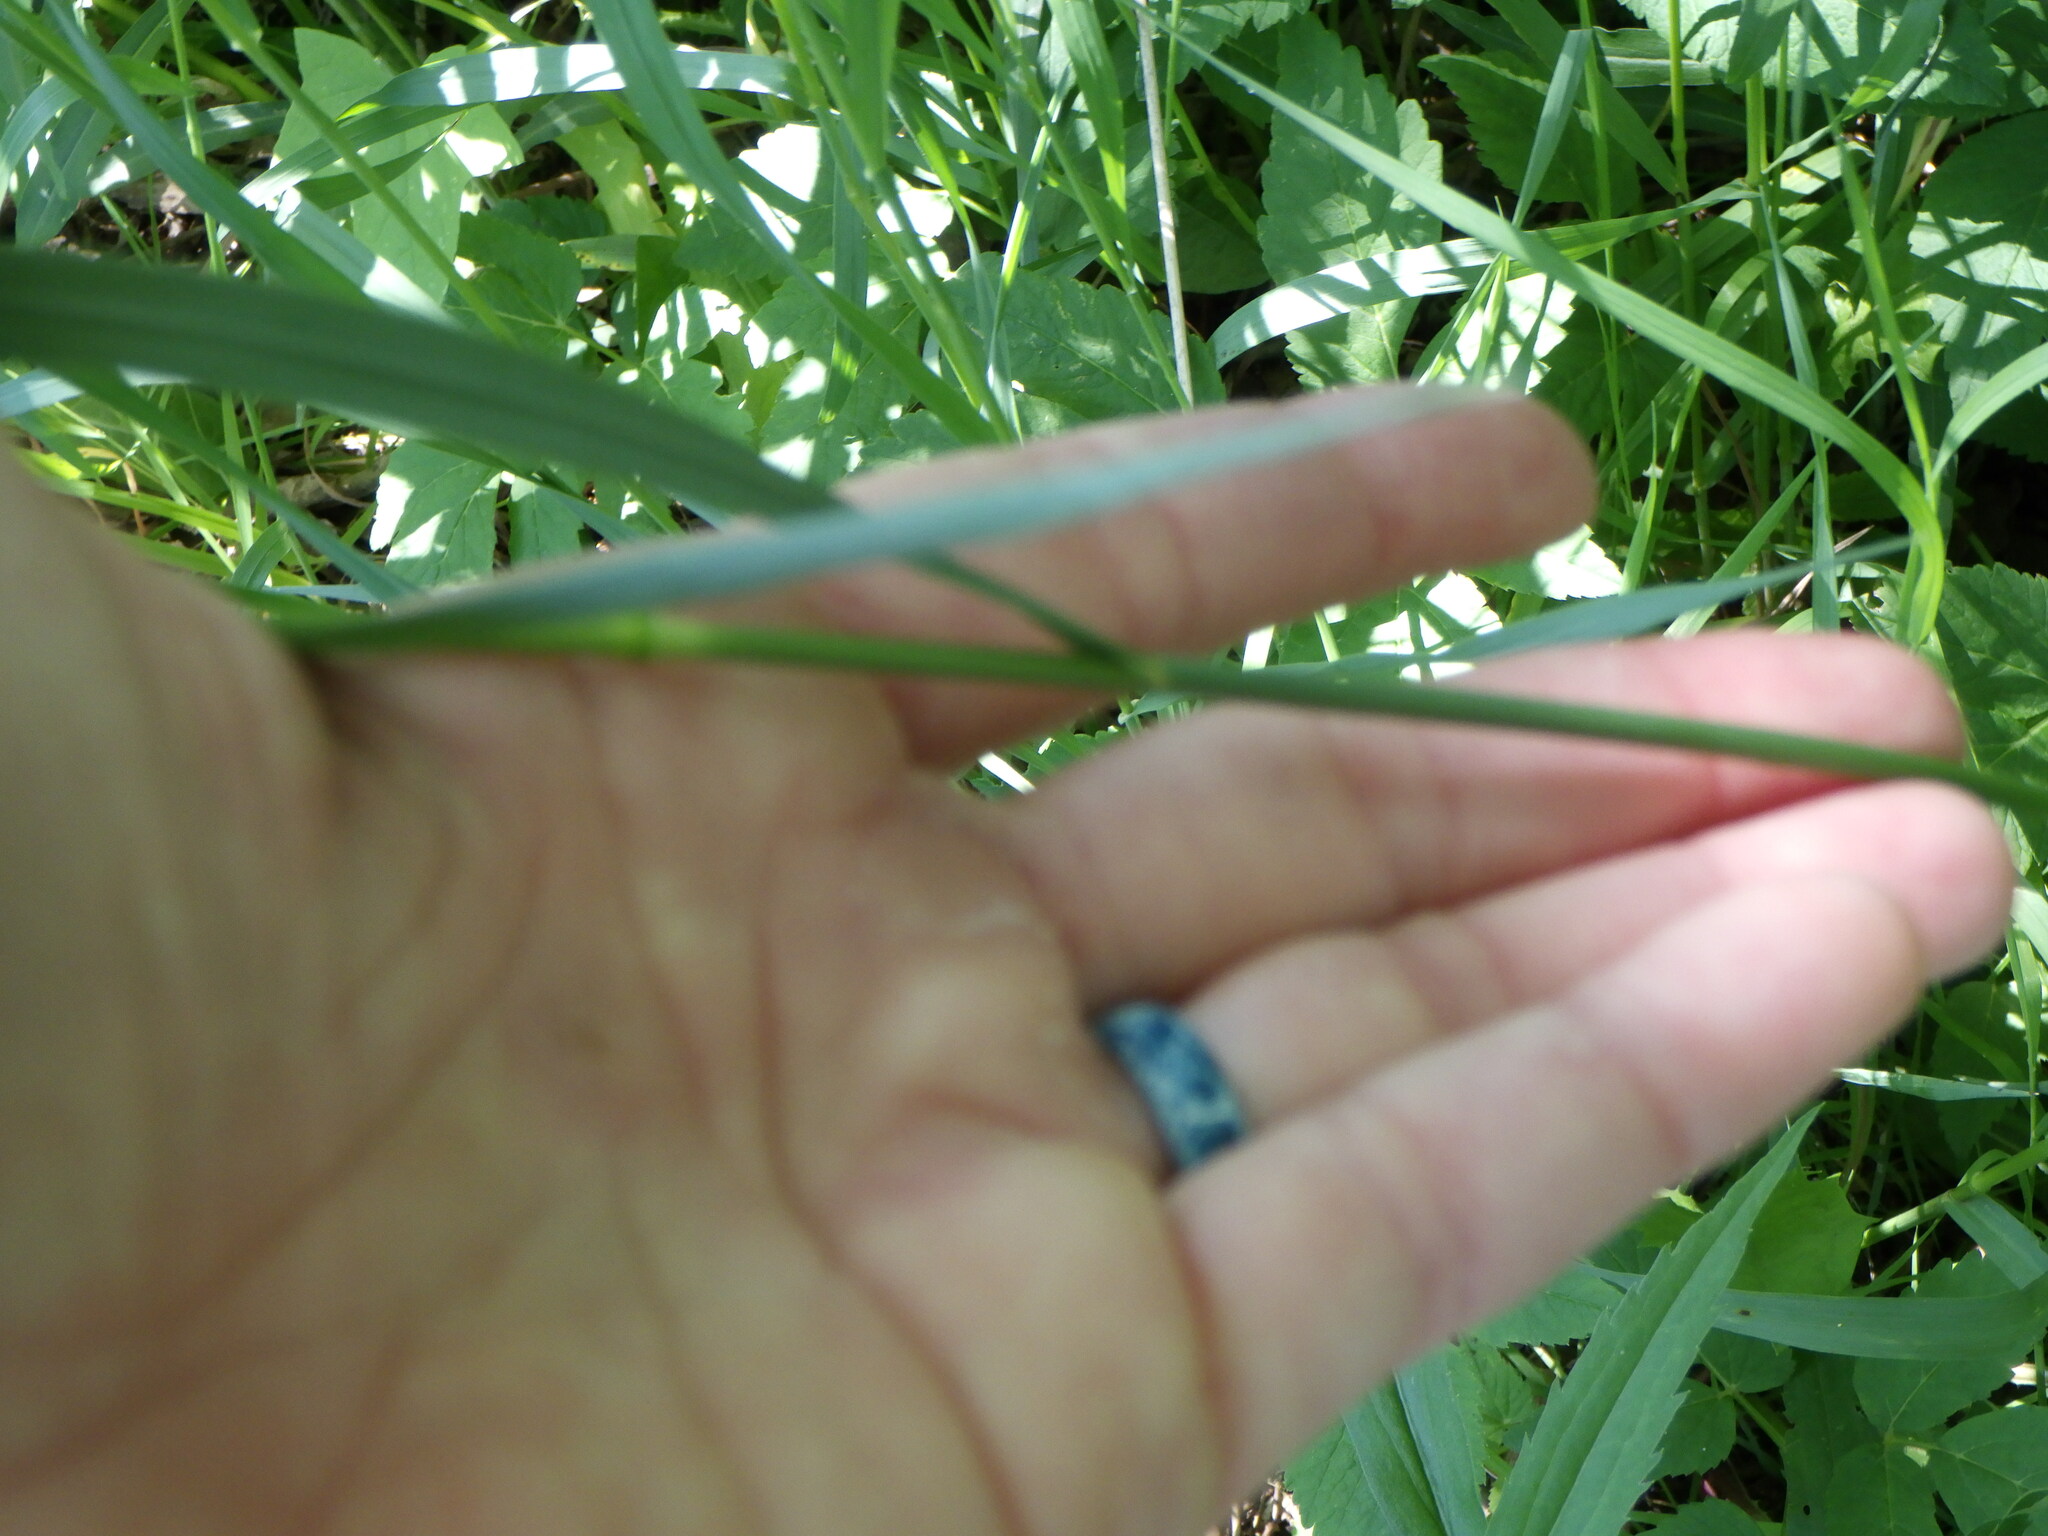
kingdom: Plantae
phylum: Tracheophyta
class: Liliopsida
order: Poales
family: Poaceae
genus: Bromus
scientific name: Bromus inermis
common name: Smooth brome
